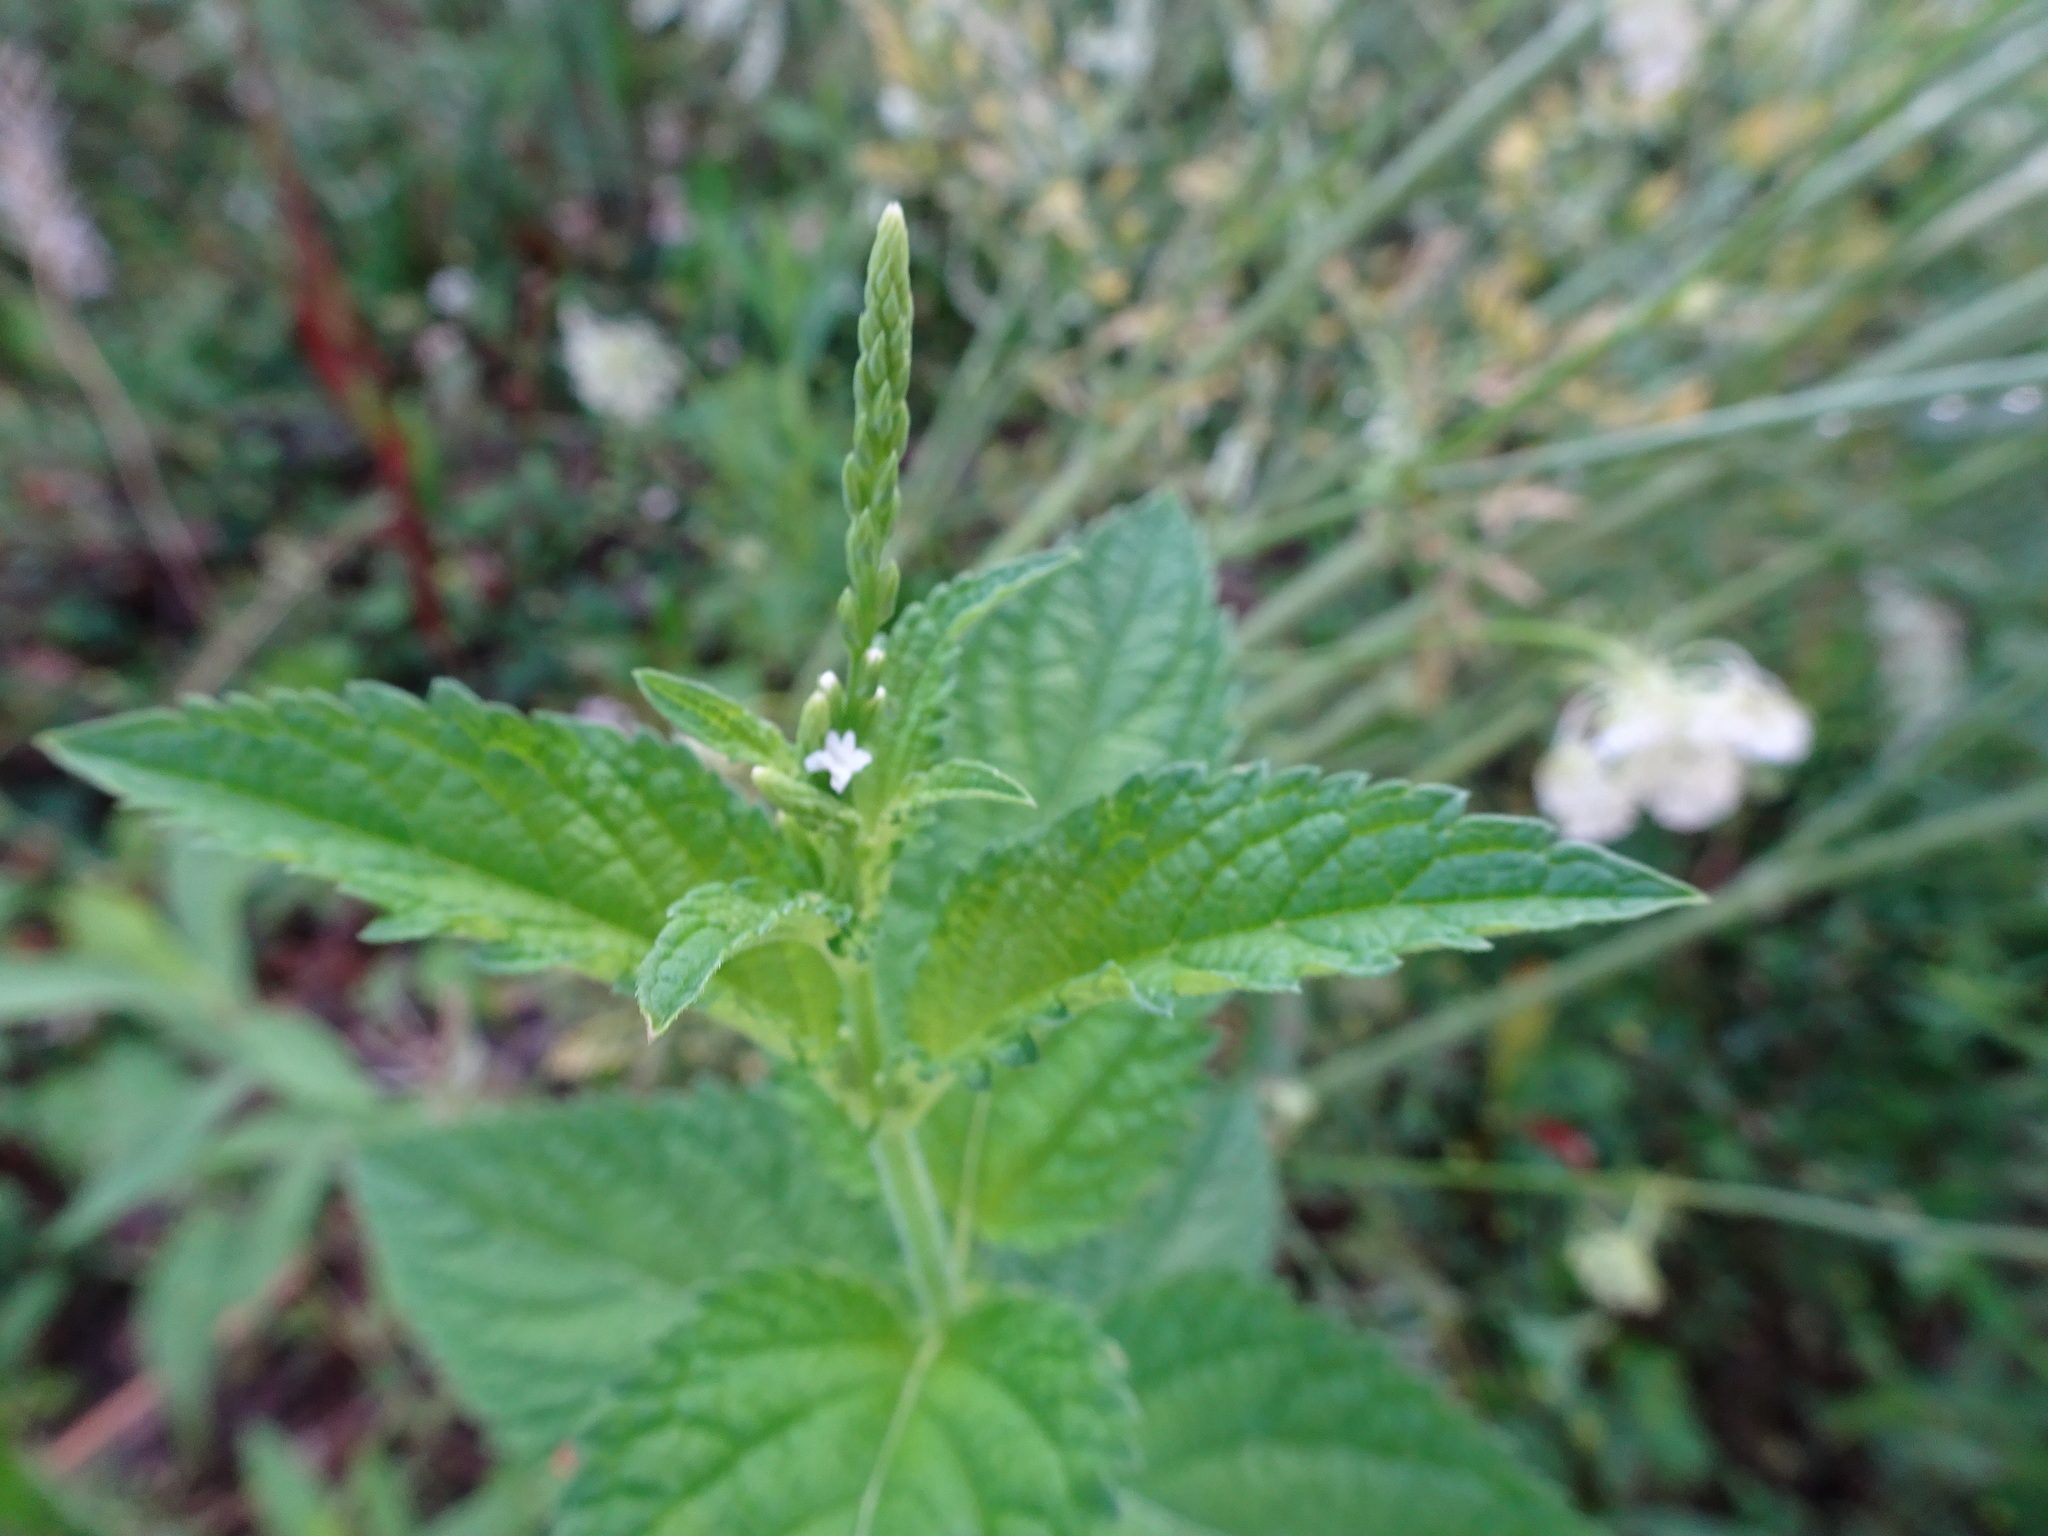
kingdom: Plantae
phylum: Tracheophyta
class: Magnoliopsida
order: Lamiales
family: Verbenaceae
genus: Verbena
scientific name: Verbena urticifolia
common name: Nettle-leaved vervain
